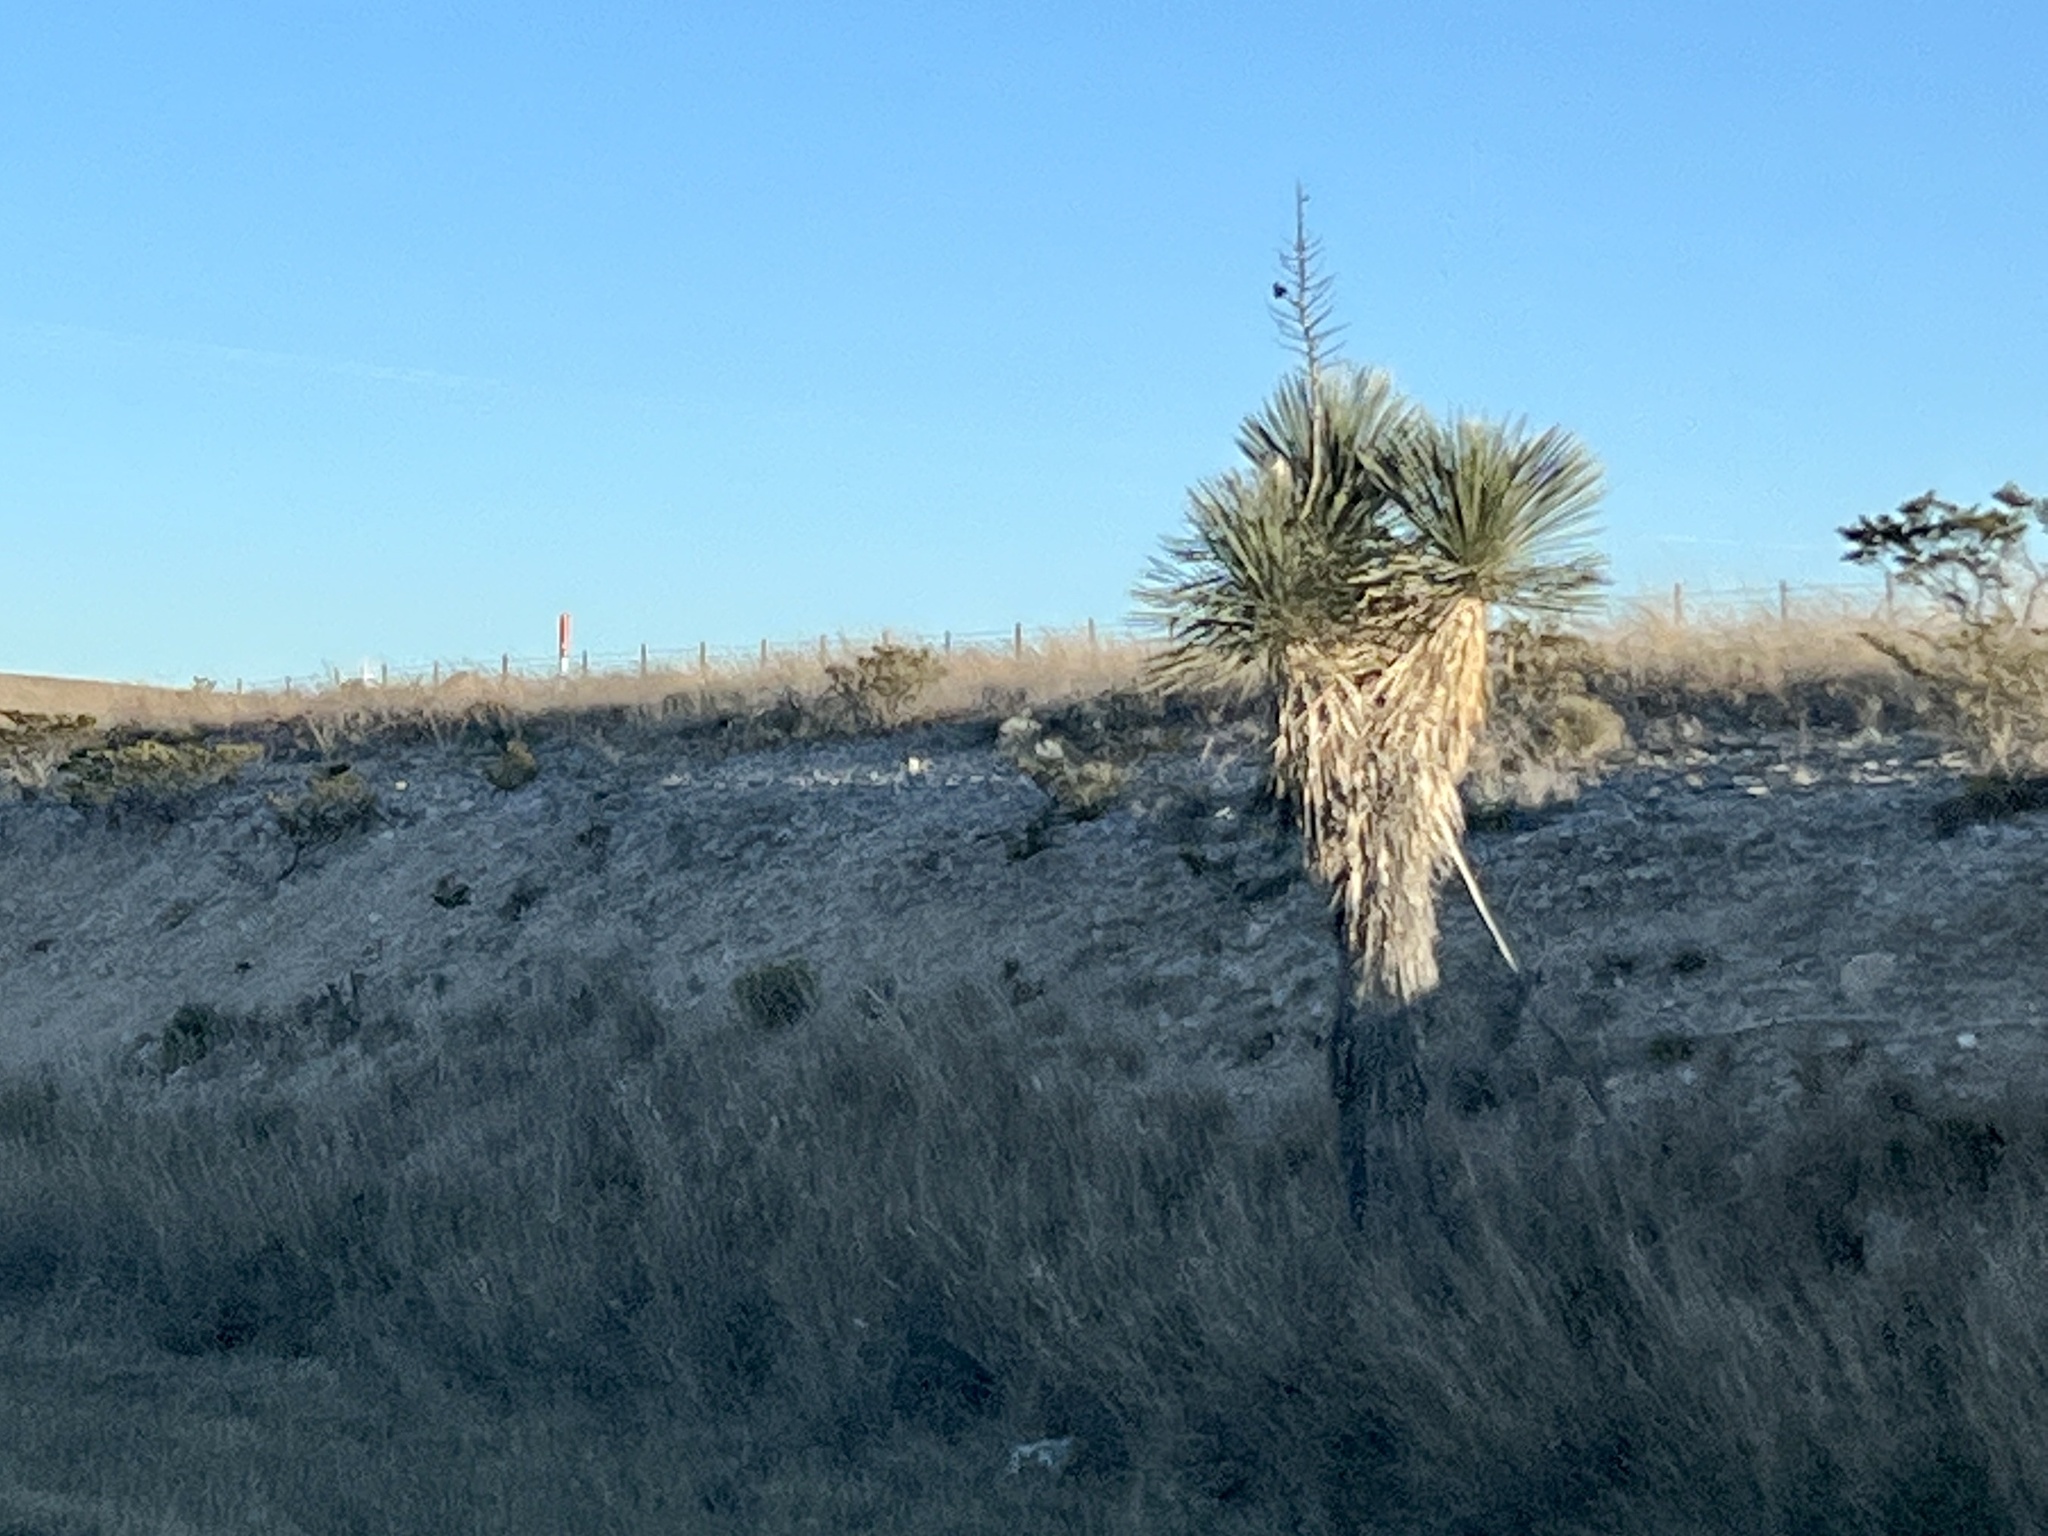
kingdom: Plantae
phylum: Tracheophyta
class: Liliopsida
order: Asparagales
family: Asparagaceae
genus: Yucca
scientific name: Yucca elata
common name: Palmella
